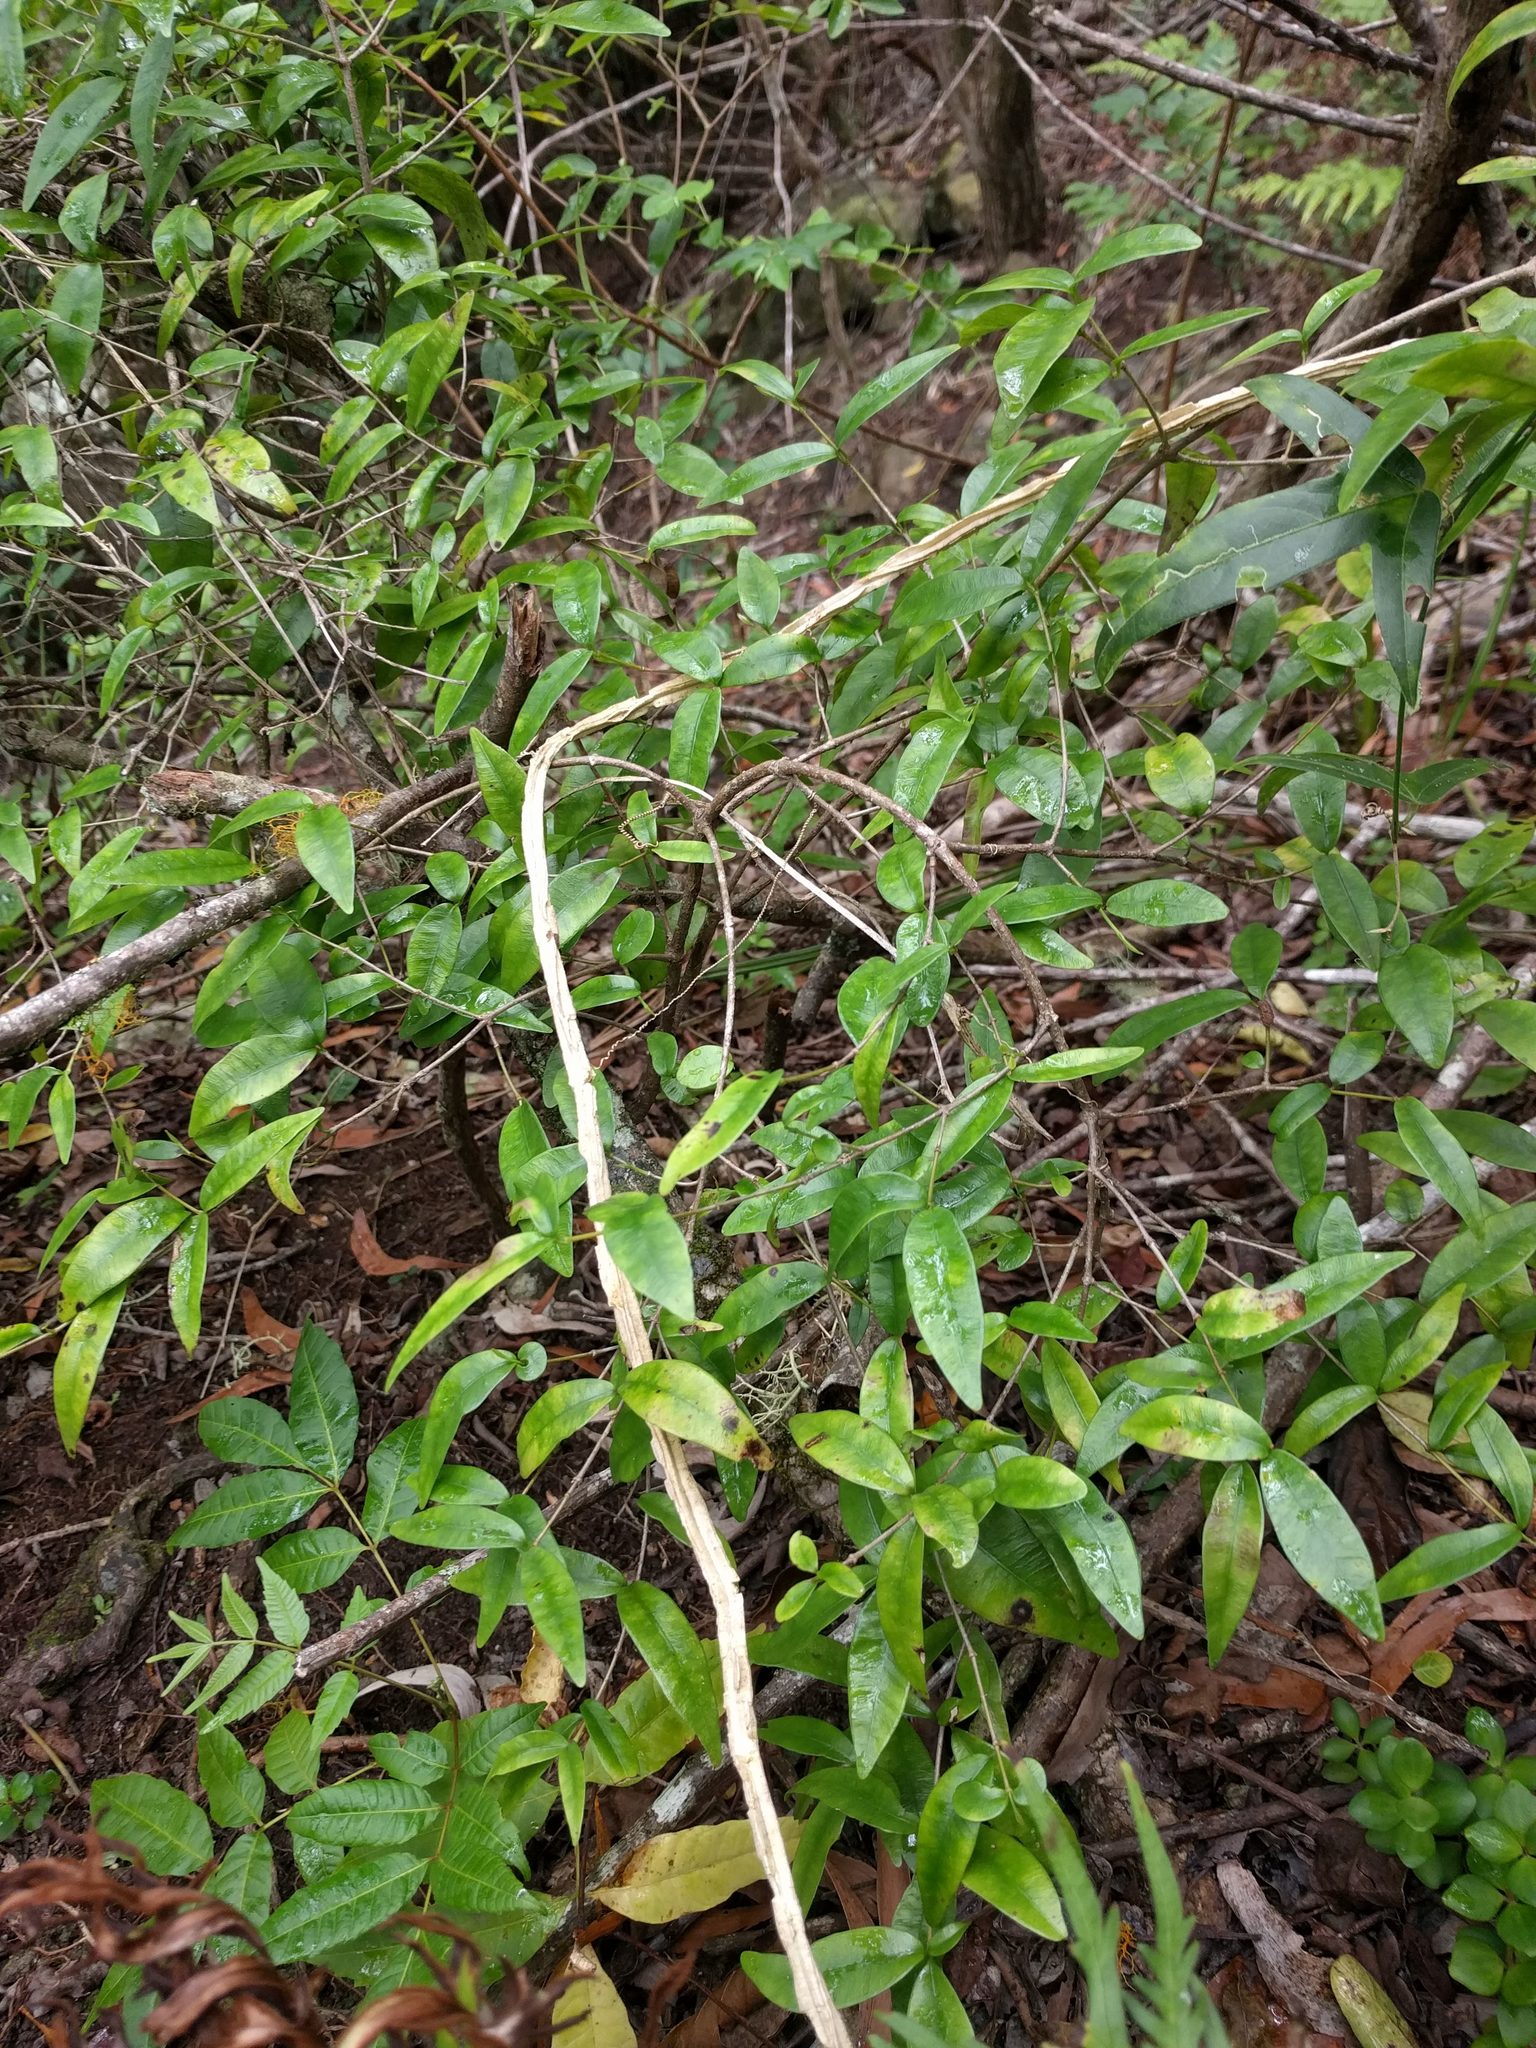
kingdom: Plantae
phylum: Tracheophyta
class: Magnoliopsida
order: Gentianales
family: Apocynaceae
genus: Alyxia
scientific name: Alyxia stellata
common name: Maile
